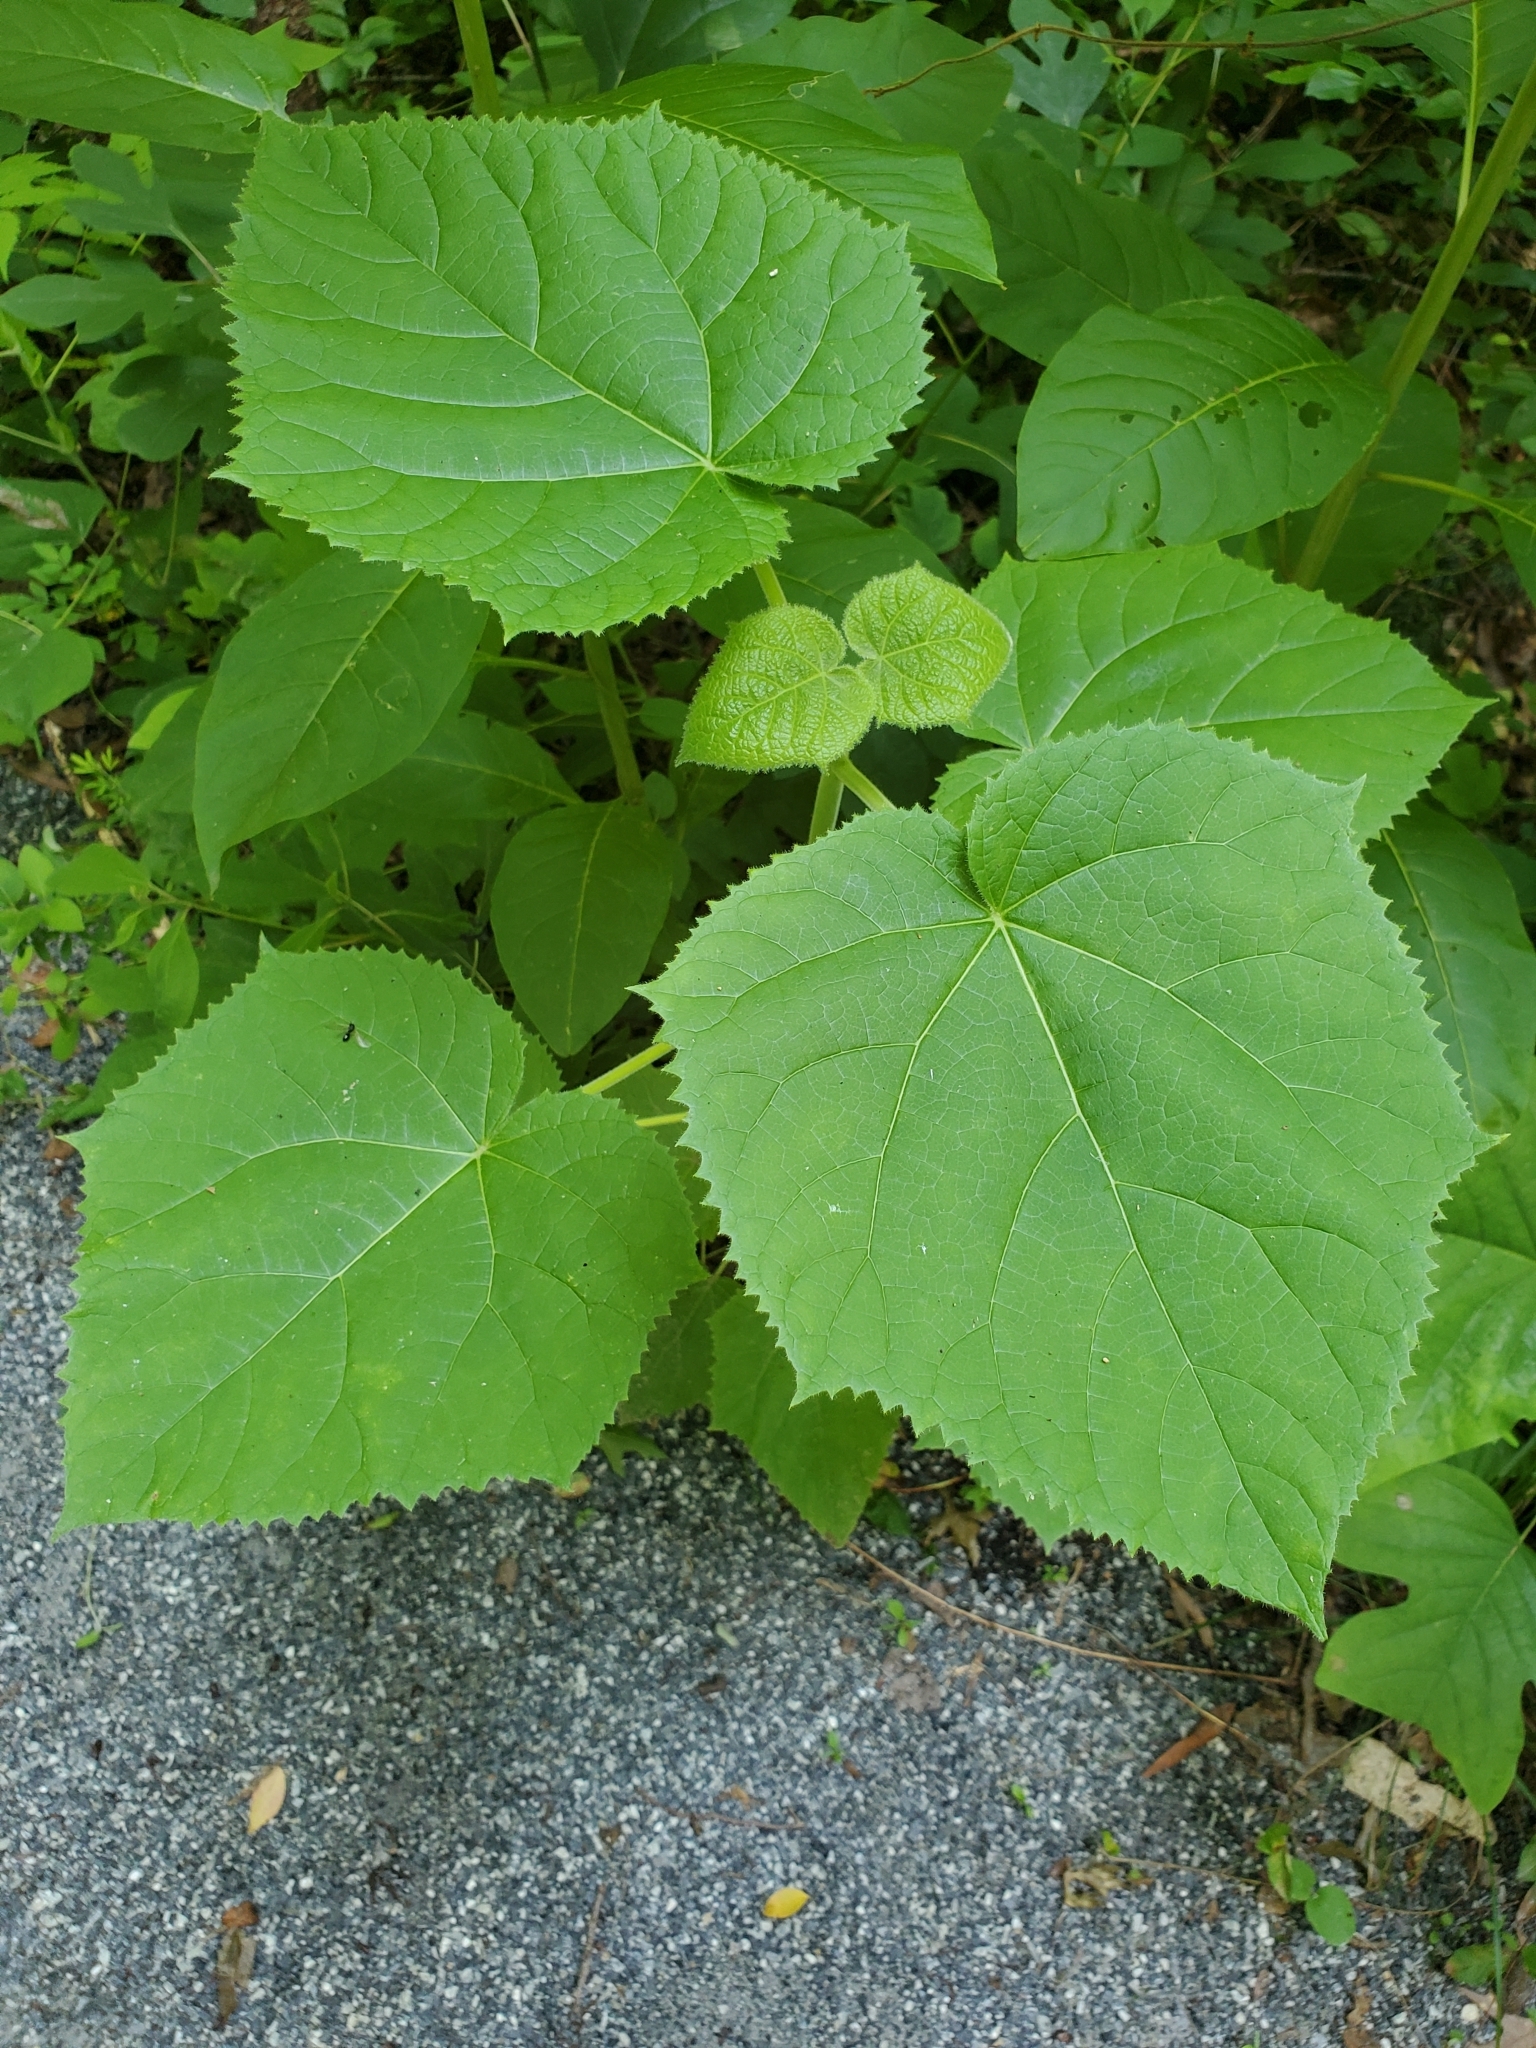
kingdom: Plantae
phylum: Tracheophyta
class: Magnoliopsida
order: Lamiales
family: Paulowniaceae
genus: Paulownia
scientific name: Paulownia tomentosa
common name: Foxglove-tree
